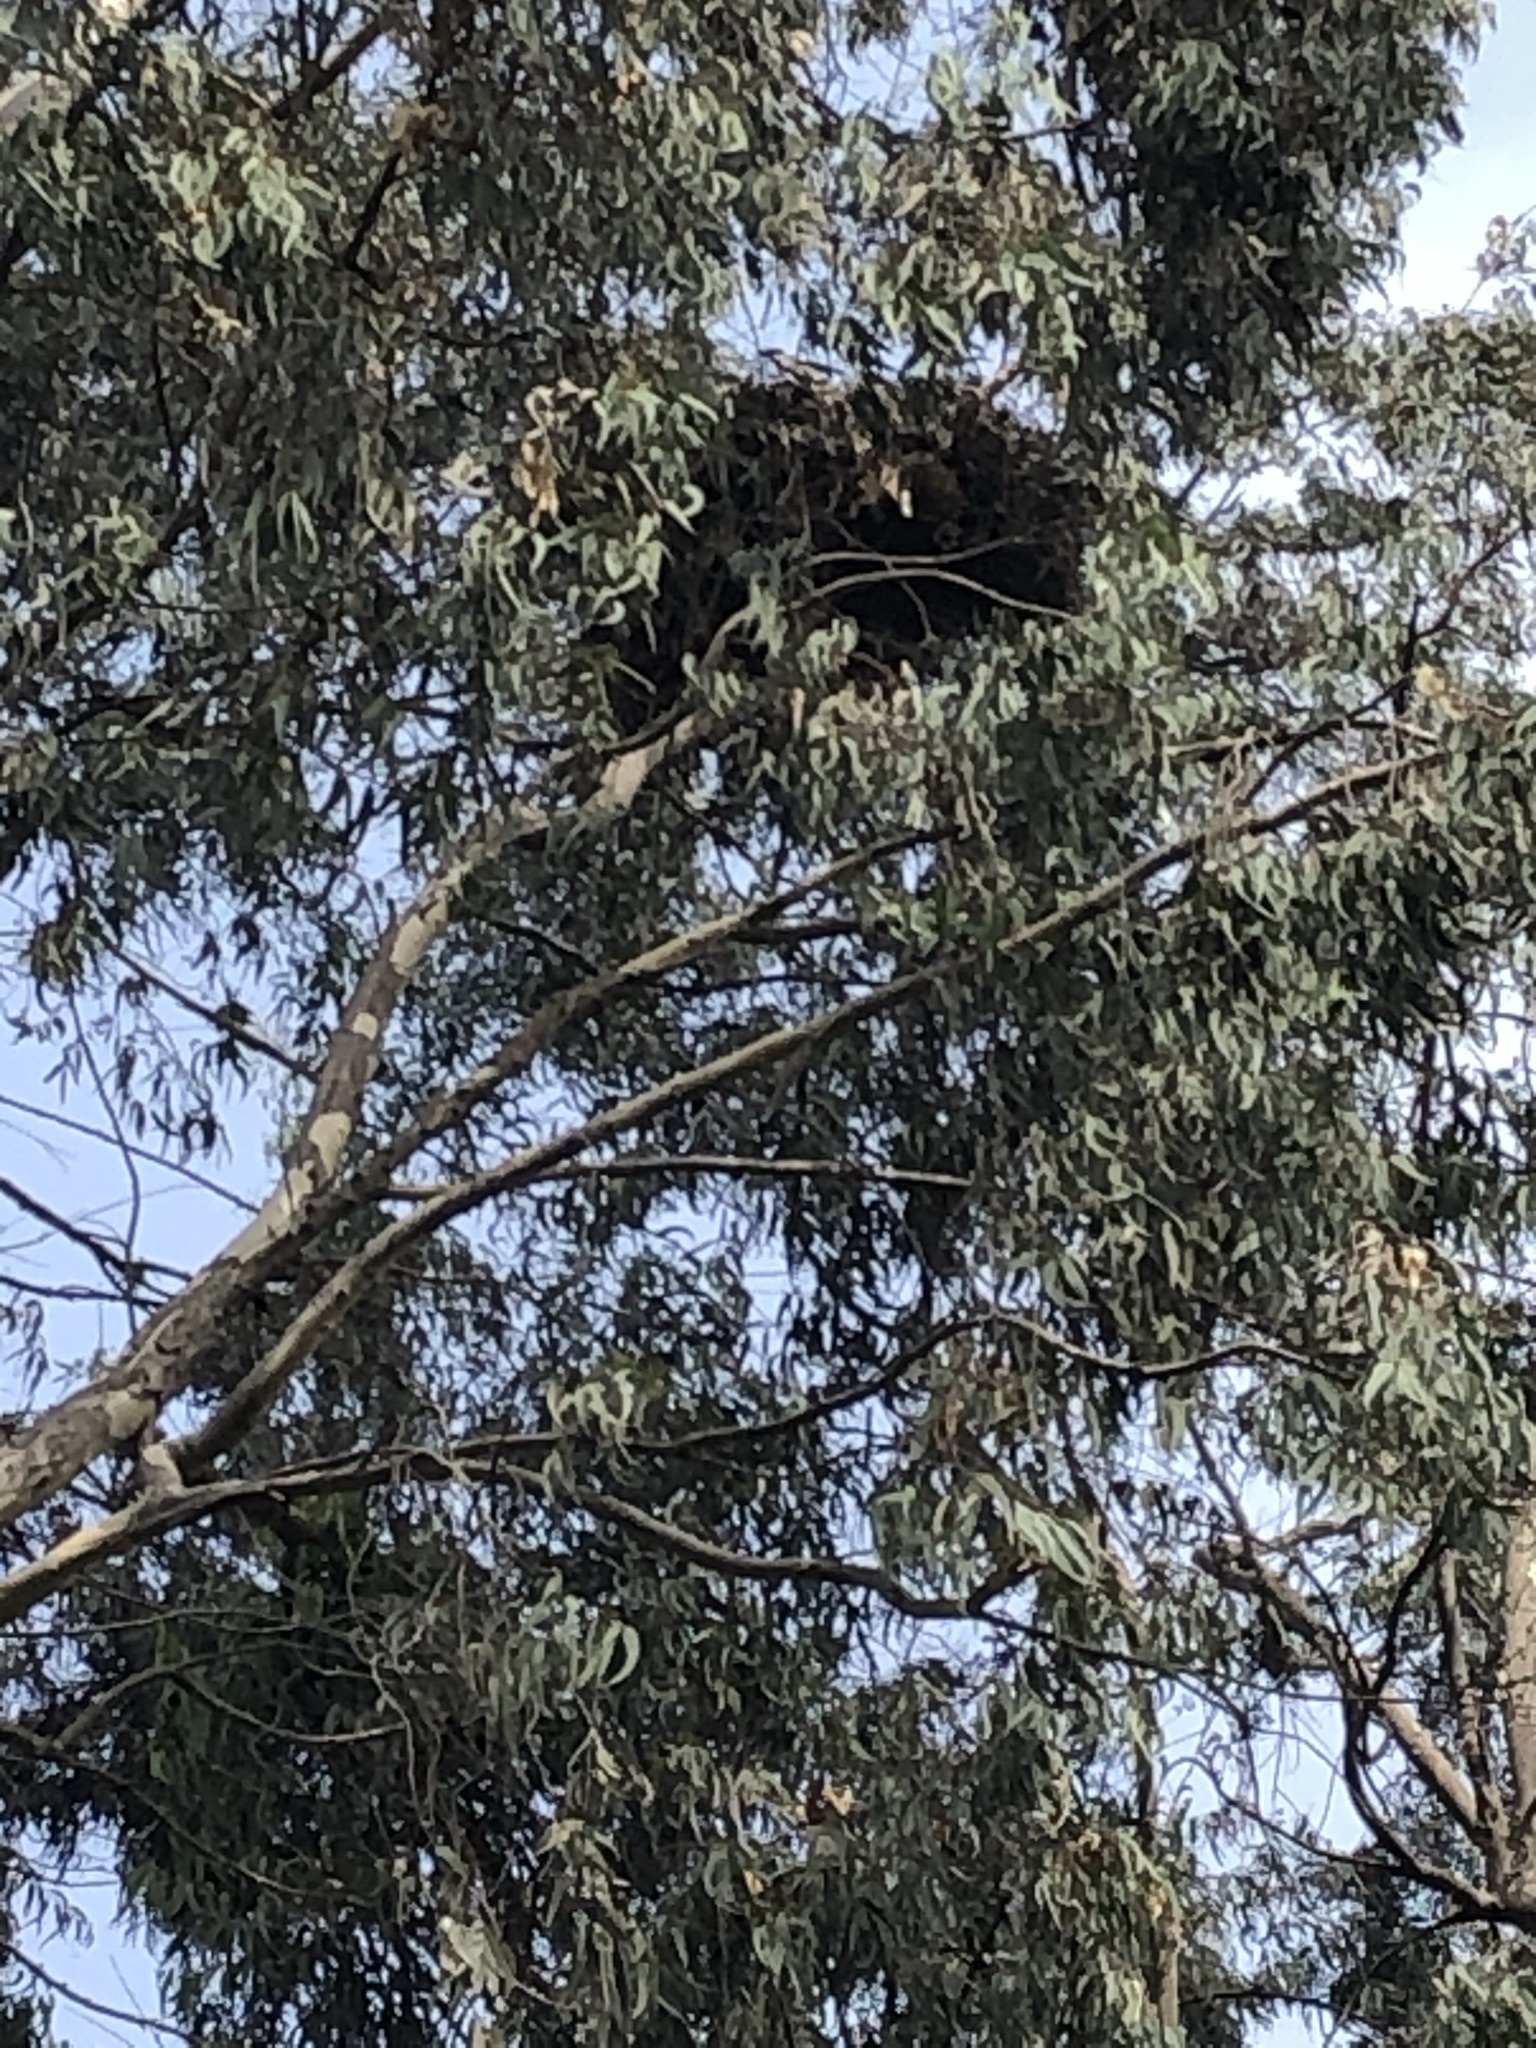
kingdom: Animalia
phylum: Chordata
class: Aves
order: Accipitriformes
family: Accipitridae
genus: Parabuteo
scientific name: Parabuteo unicinctus
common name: Harris's hawk
